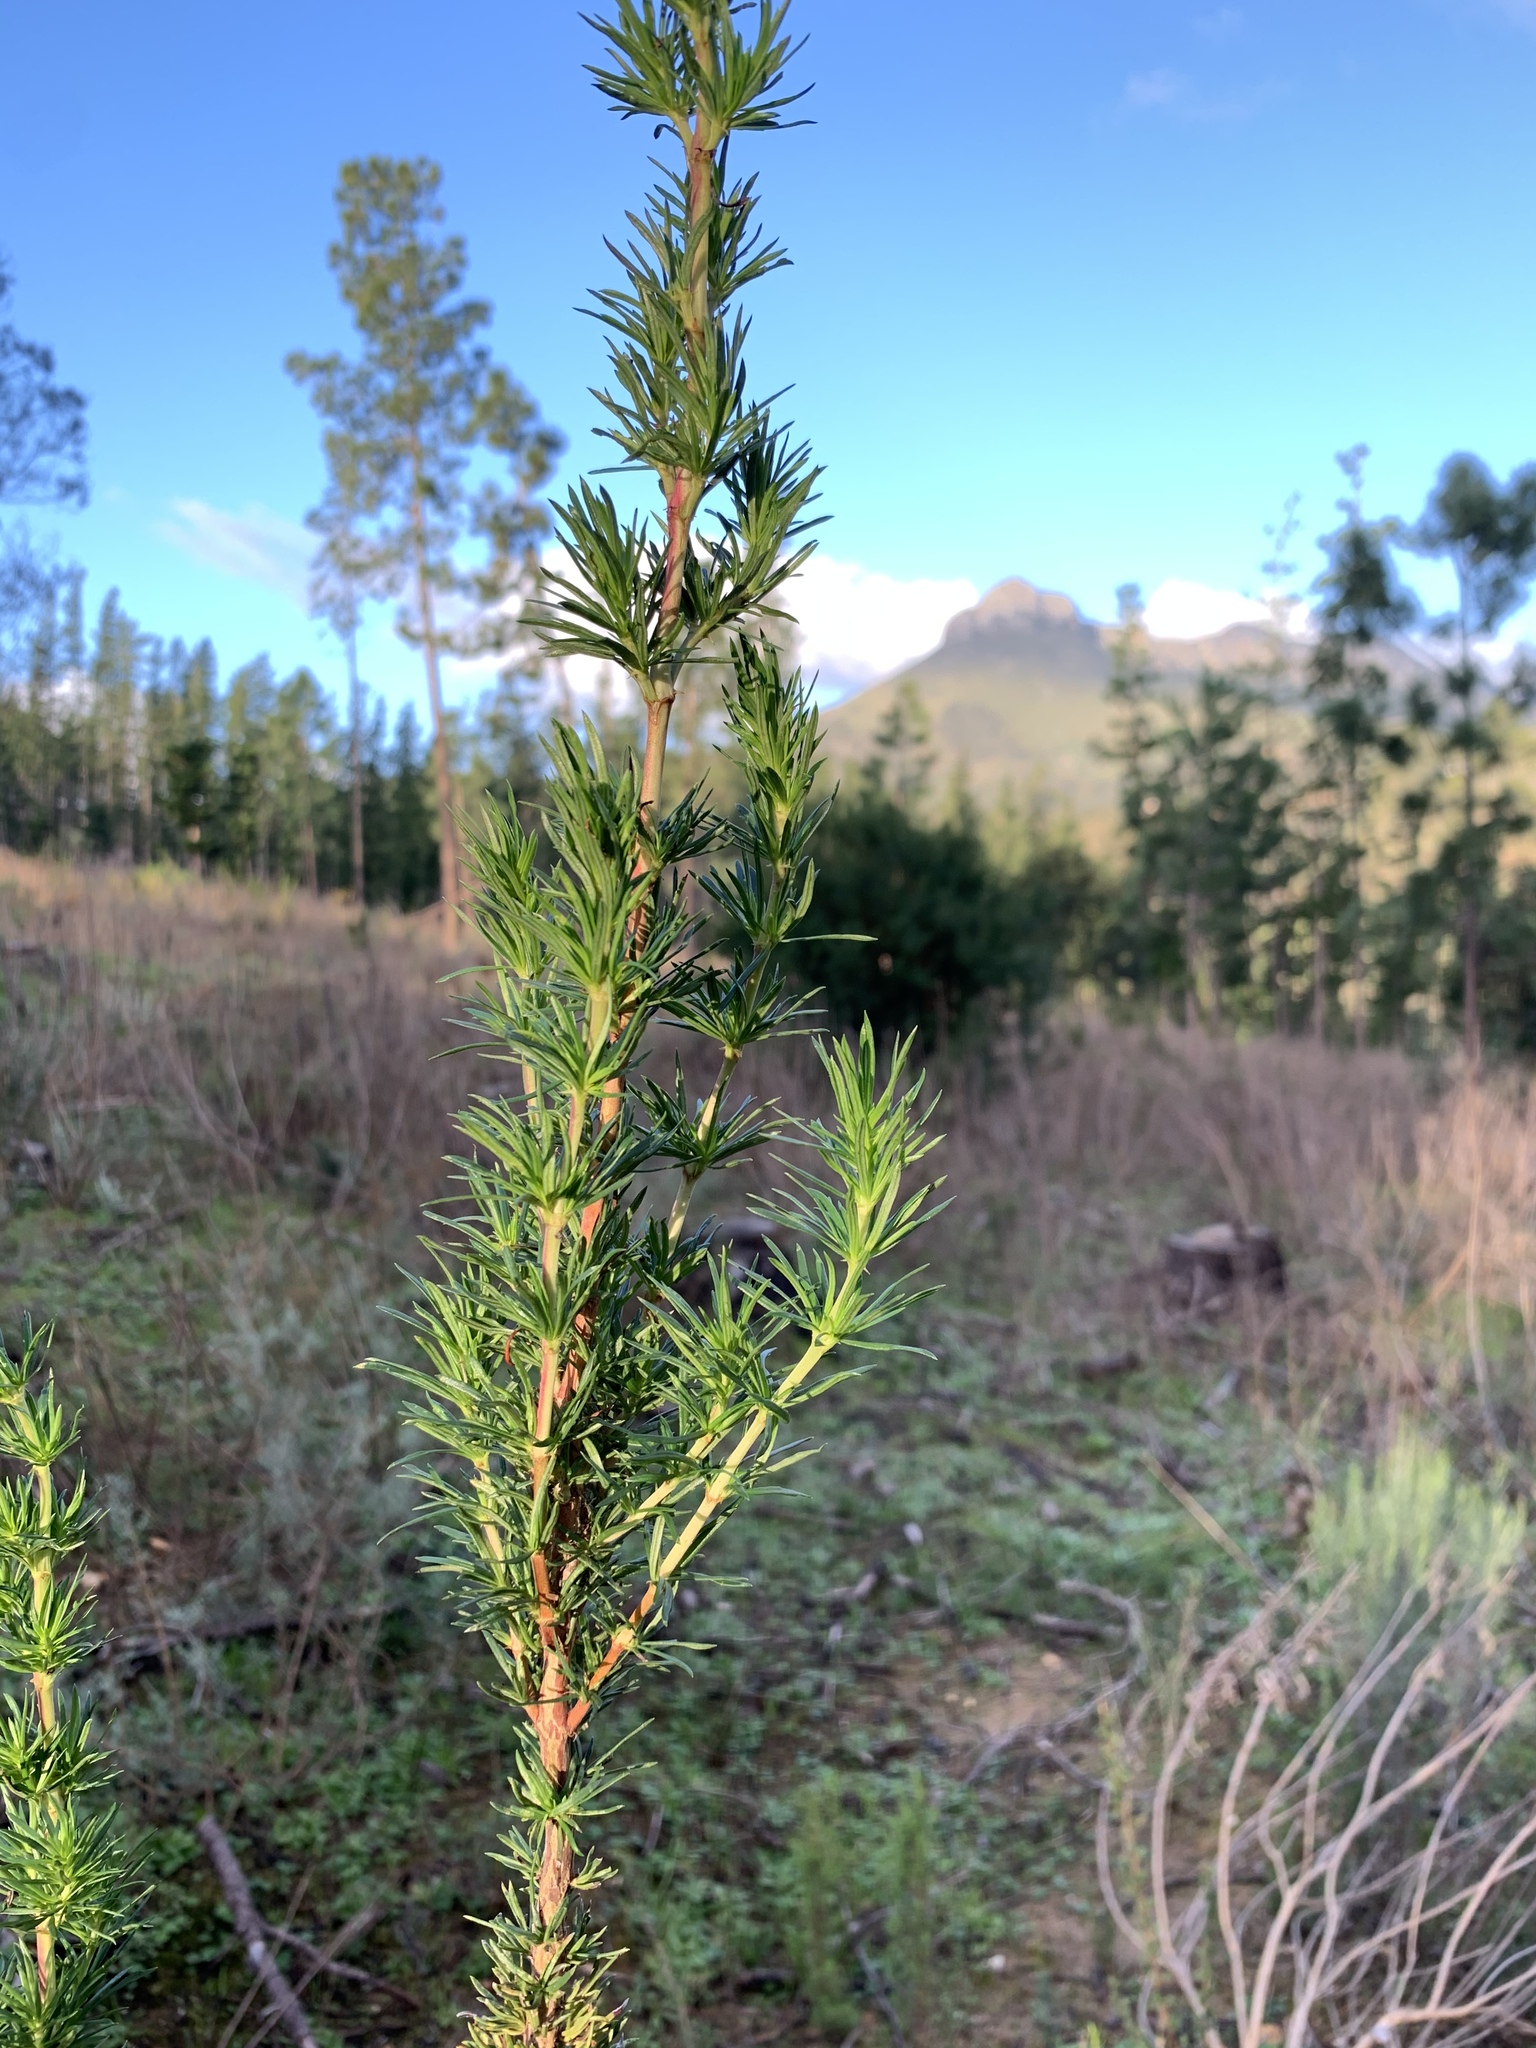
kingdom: Plantae
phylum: Tracheophyta
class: Magnoliopsida
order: Gentianales
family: Rubiaceae
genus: Anthospermum
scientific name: Anthospermum aethiopicum
